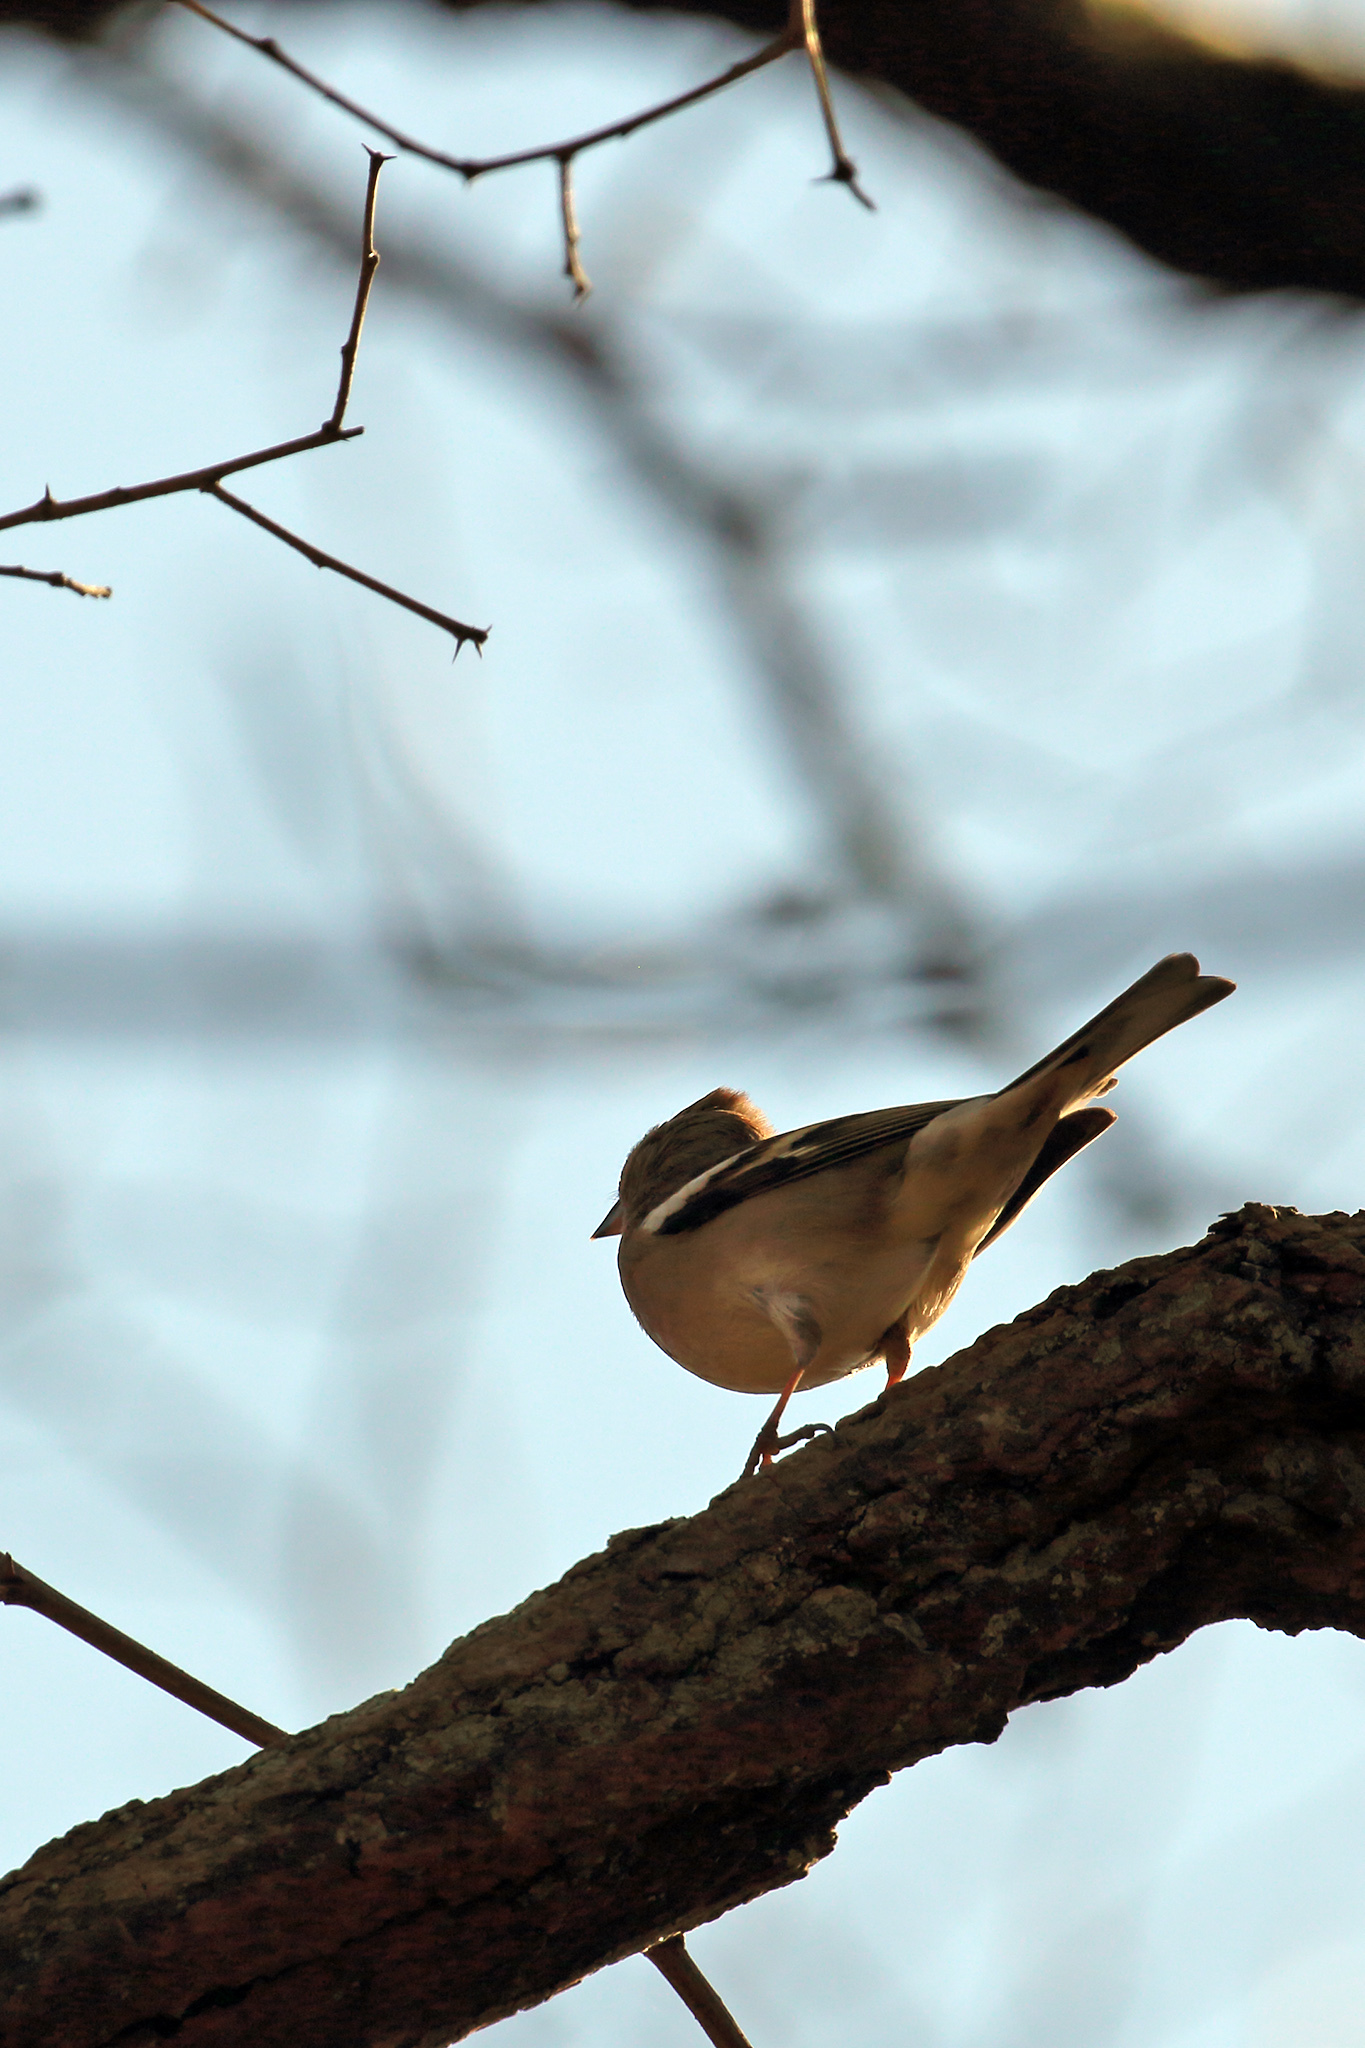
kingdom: Animalia
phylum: Chordata
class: Aves
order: Passeriformes
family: Fringillidae
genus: Fringilla
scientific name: Fringilla coelebs
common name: Common chaffinch
